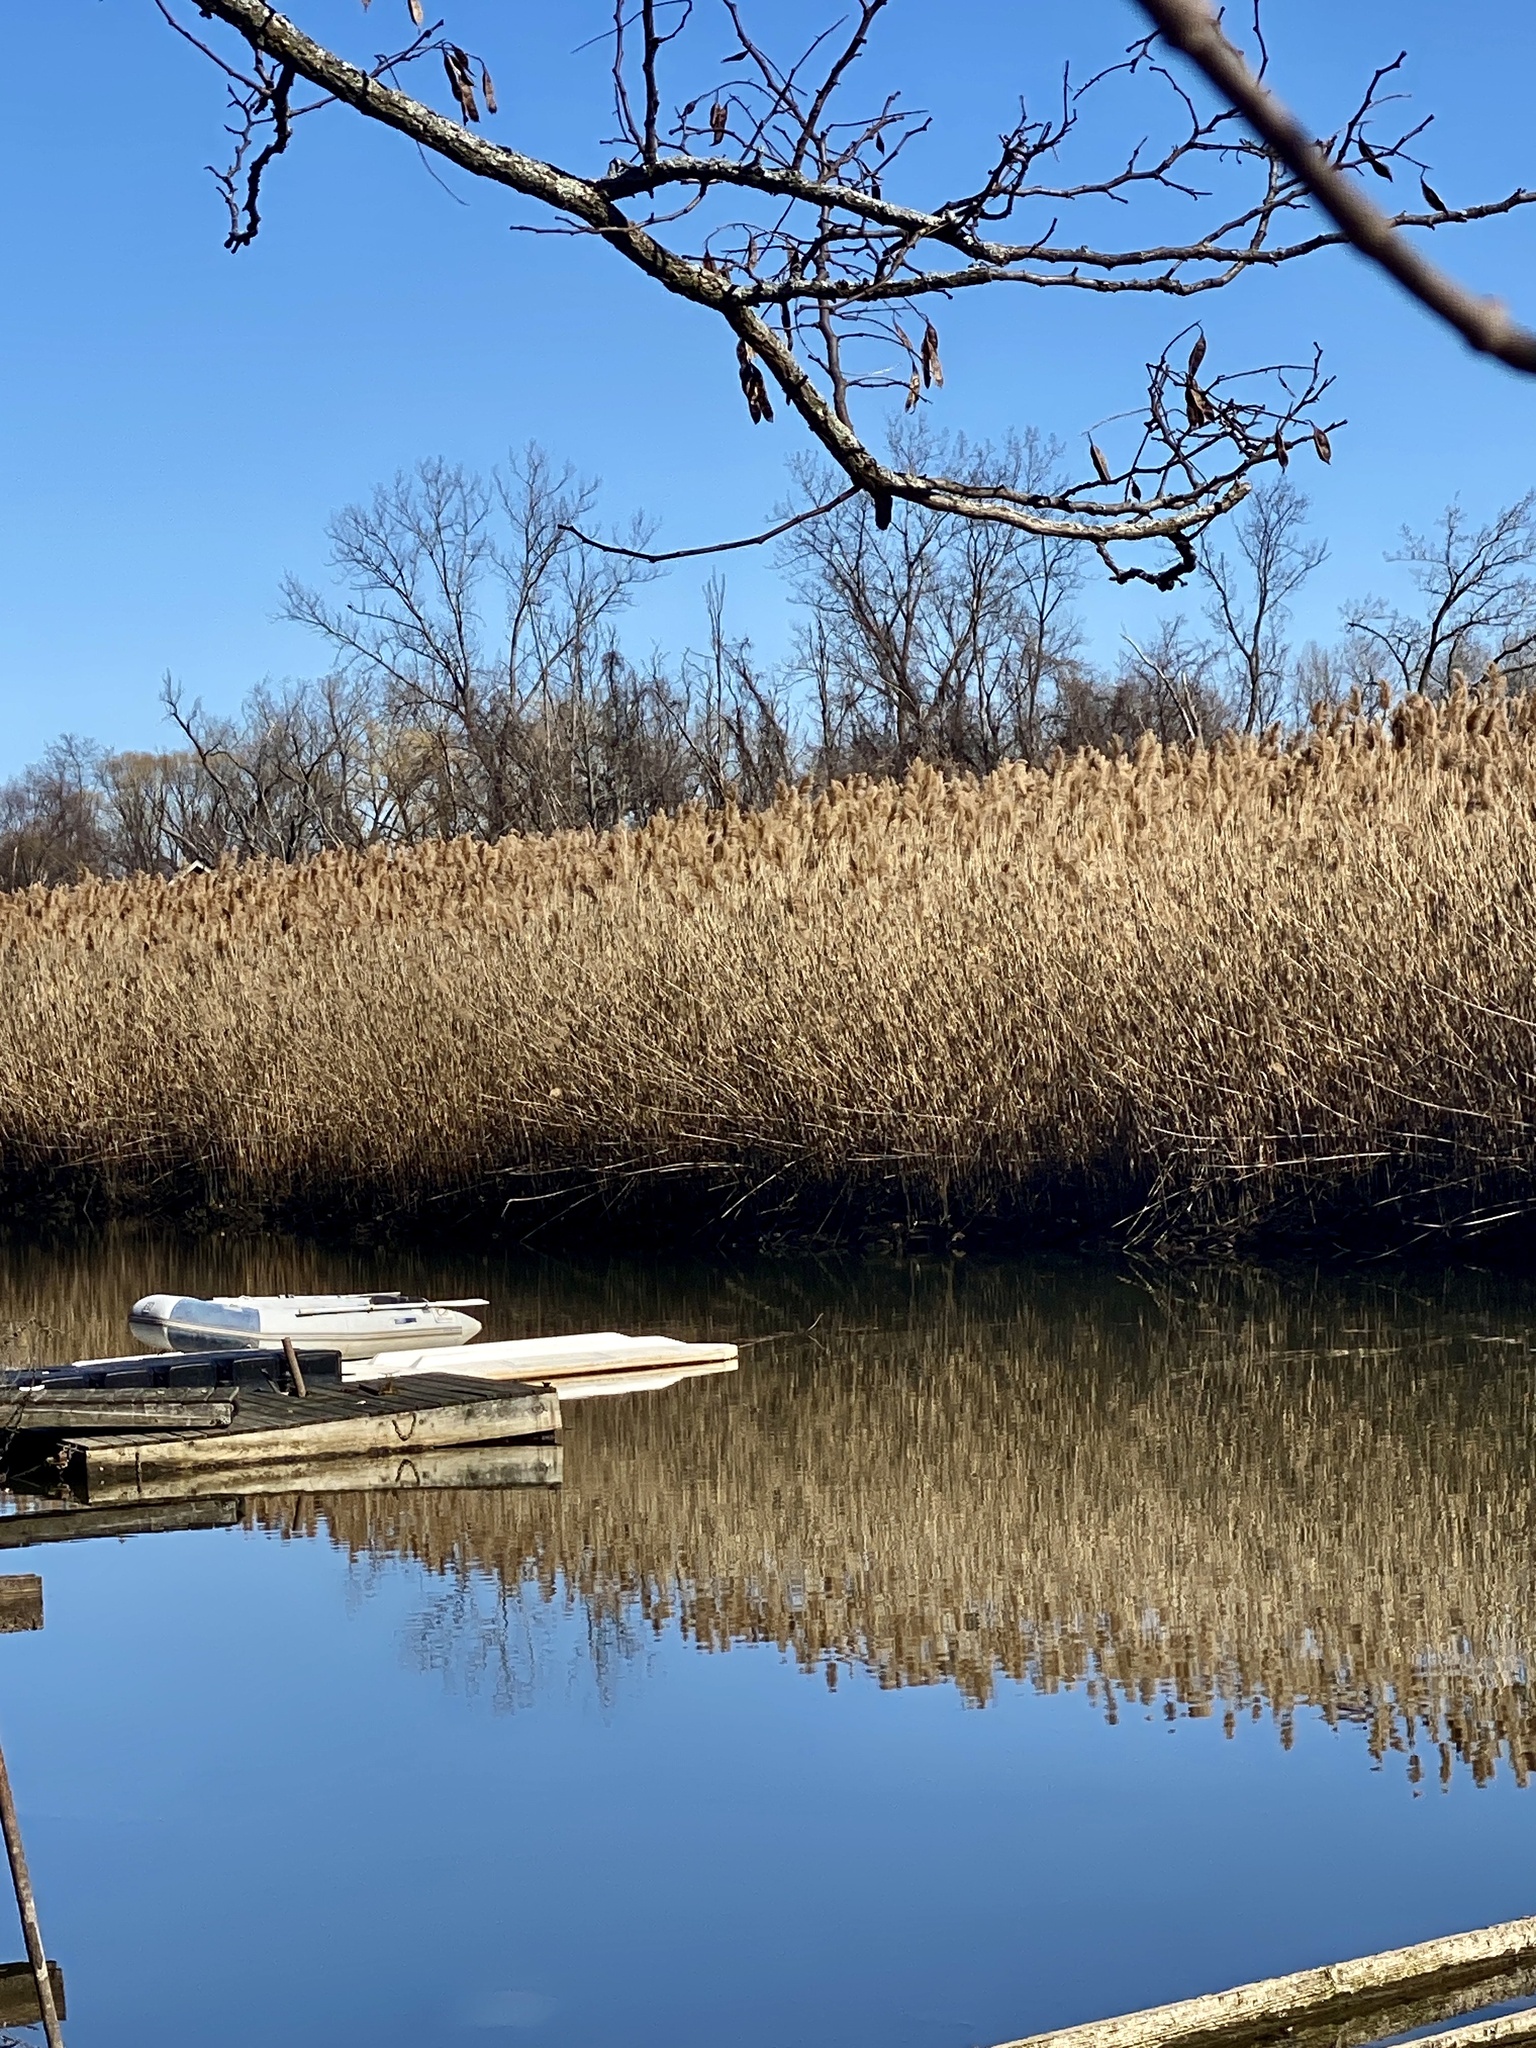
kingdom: Plantae
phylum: Tracheophyta
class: Liliopsida
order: Poales
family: Poaceae
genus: Phragmites
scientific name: Phragmites australis
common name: Common reed
